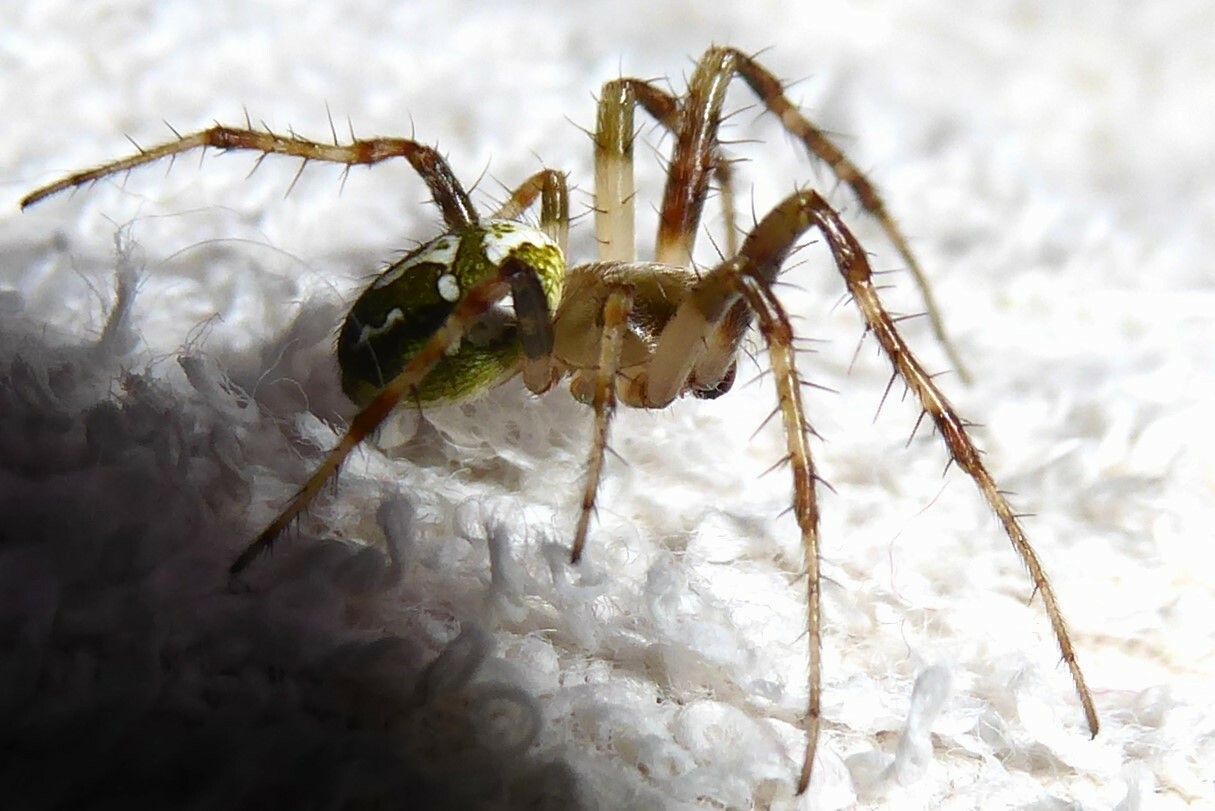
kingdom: Animalia
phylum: Arthropoda
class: Arachnida
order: Araneae
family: Araneidae
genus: Colaranea
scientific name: Colaranea verutum
